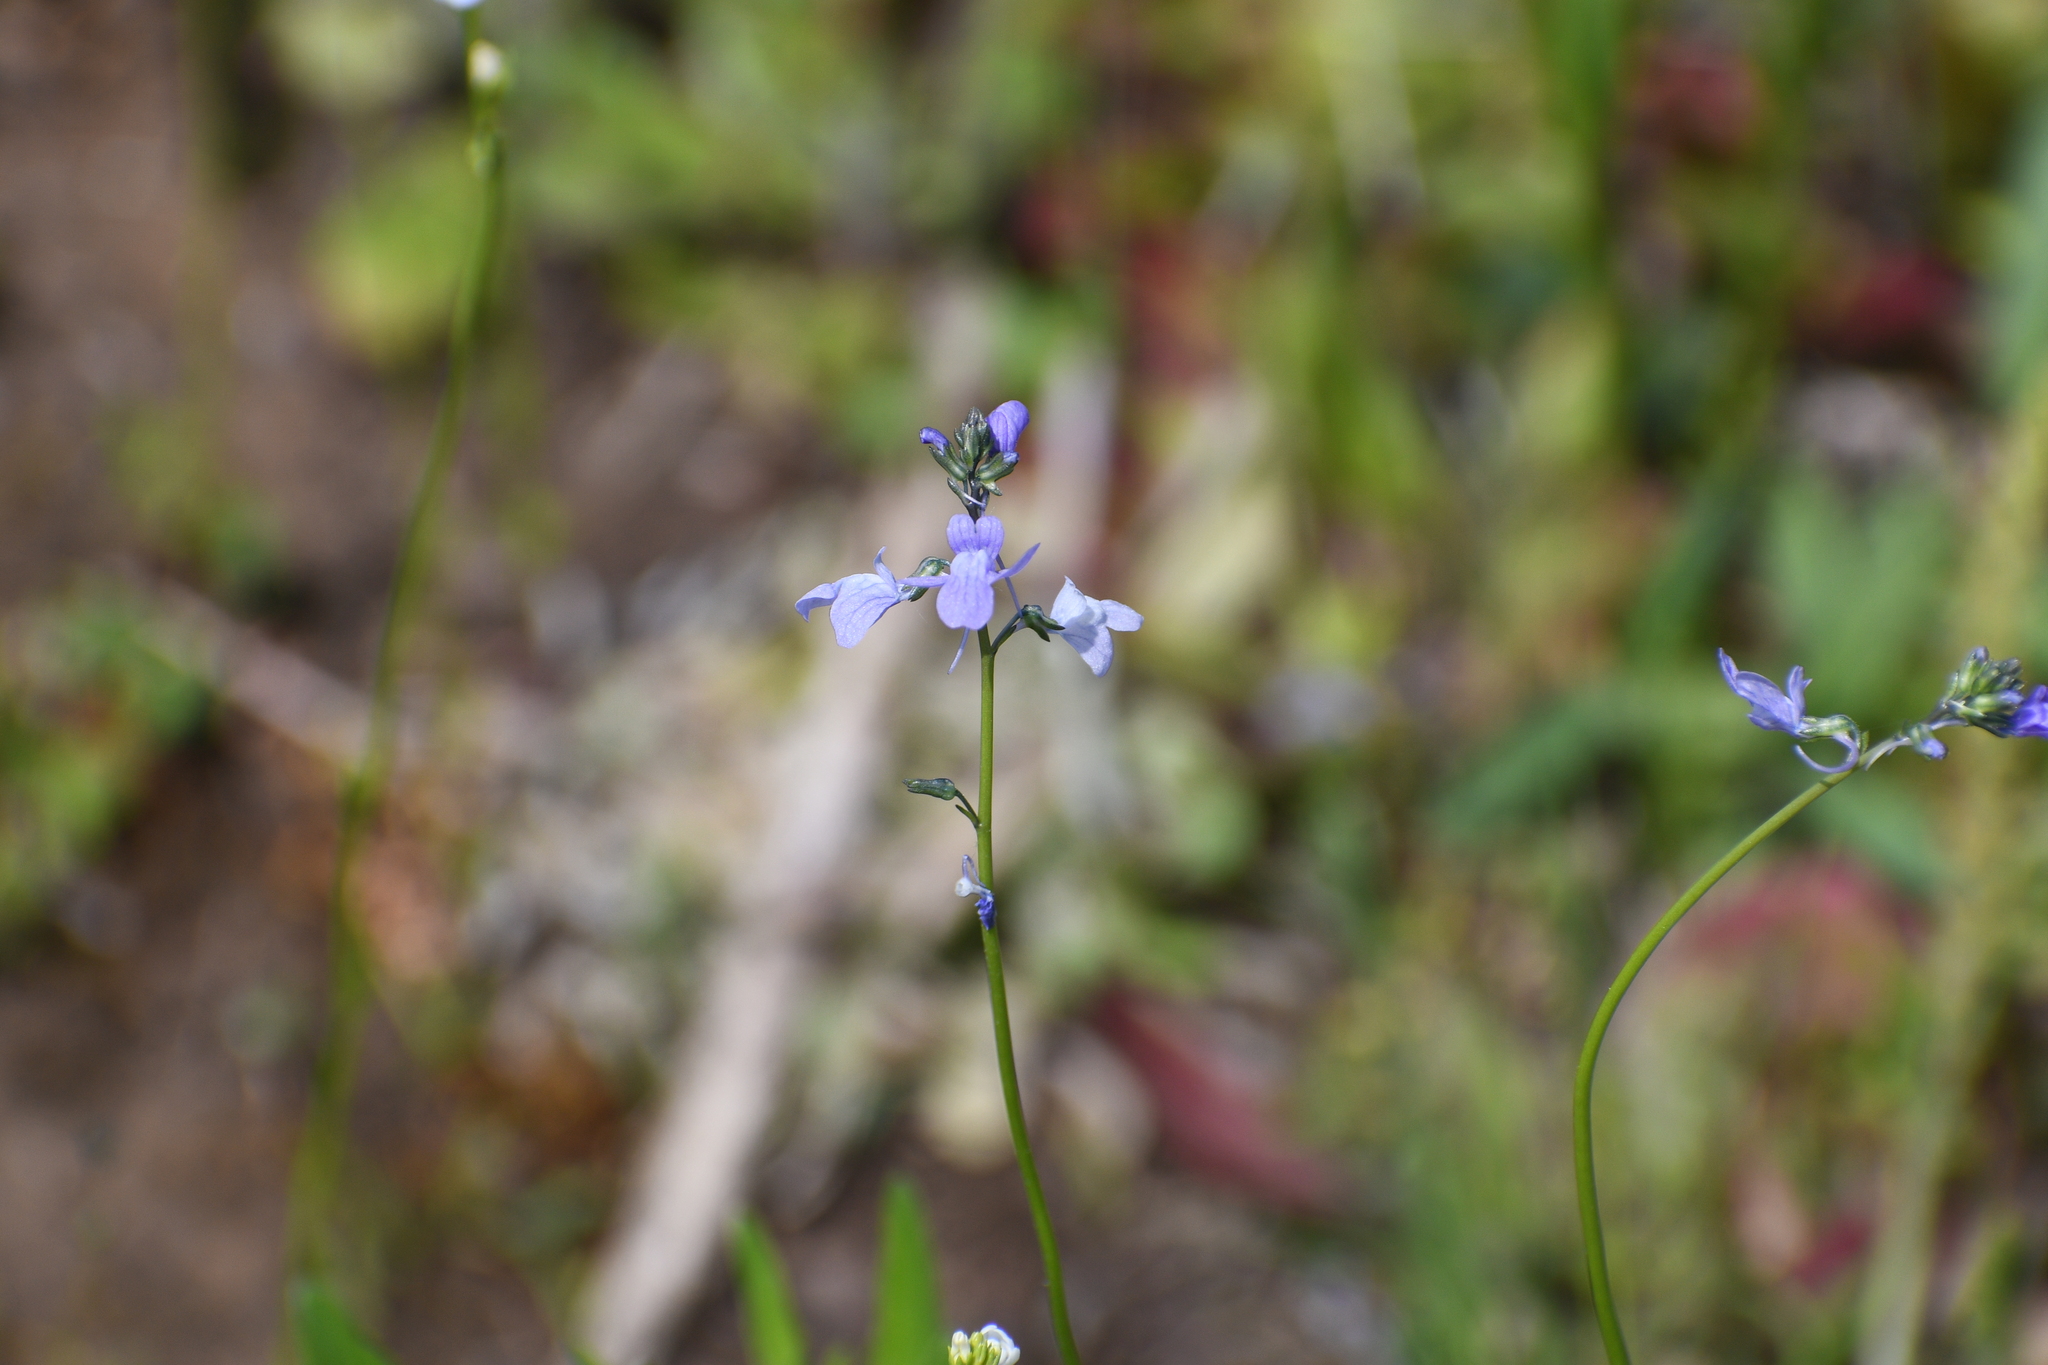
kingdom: Plantae
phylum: Tracheophyta
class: Magnoliopsida
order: Lamiales
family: Plantaginaceae
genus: Nuttallanthus
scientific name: Nuttallanthus texanus
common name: Texas toadflax
